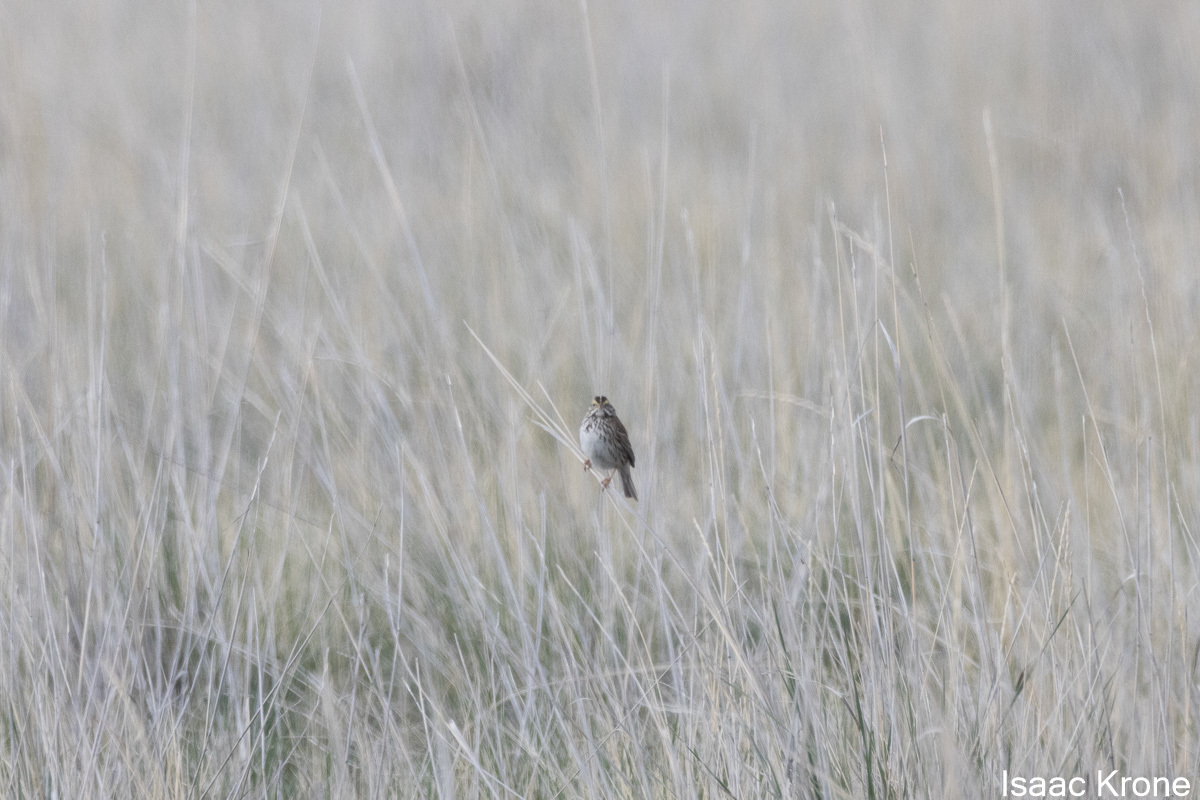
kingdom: Animalia
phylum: Chordata
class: Aves
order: Passeriformes
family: Passerellidae
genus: Passerculus
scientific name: Passerculus sandwichensis
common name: Savannah sparrow
